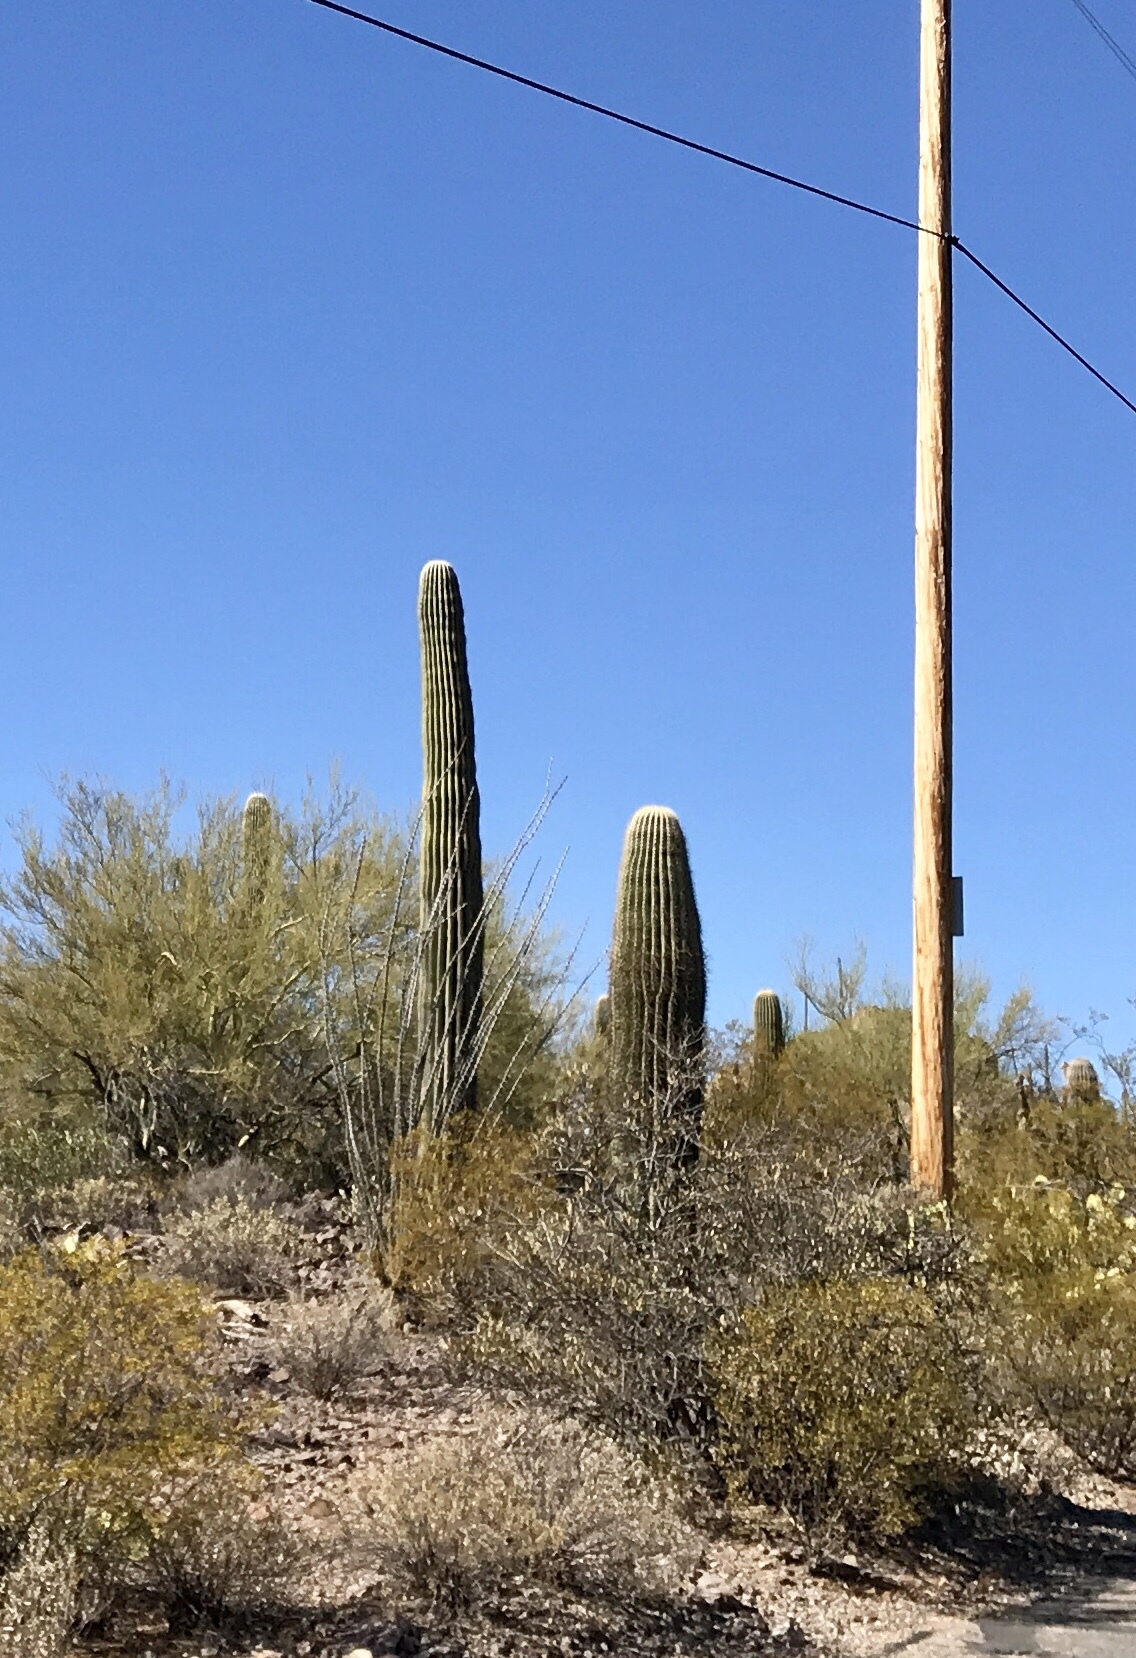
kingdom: Plantae
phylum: Tracheophyta
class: Magnoliopsida
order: Caryophyllales
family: Cactaceae
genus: Carnegiea
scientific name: Carnegiea gigantea
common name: Saguaro
